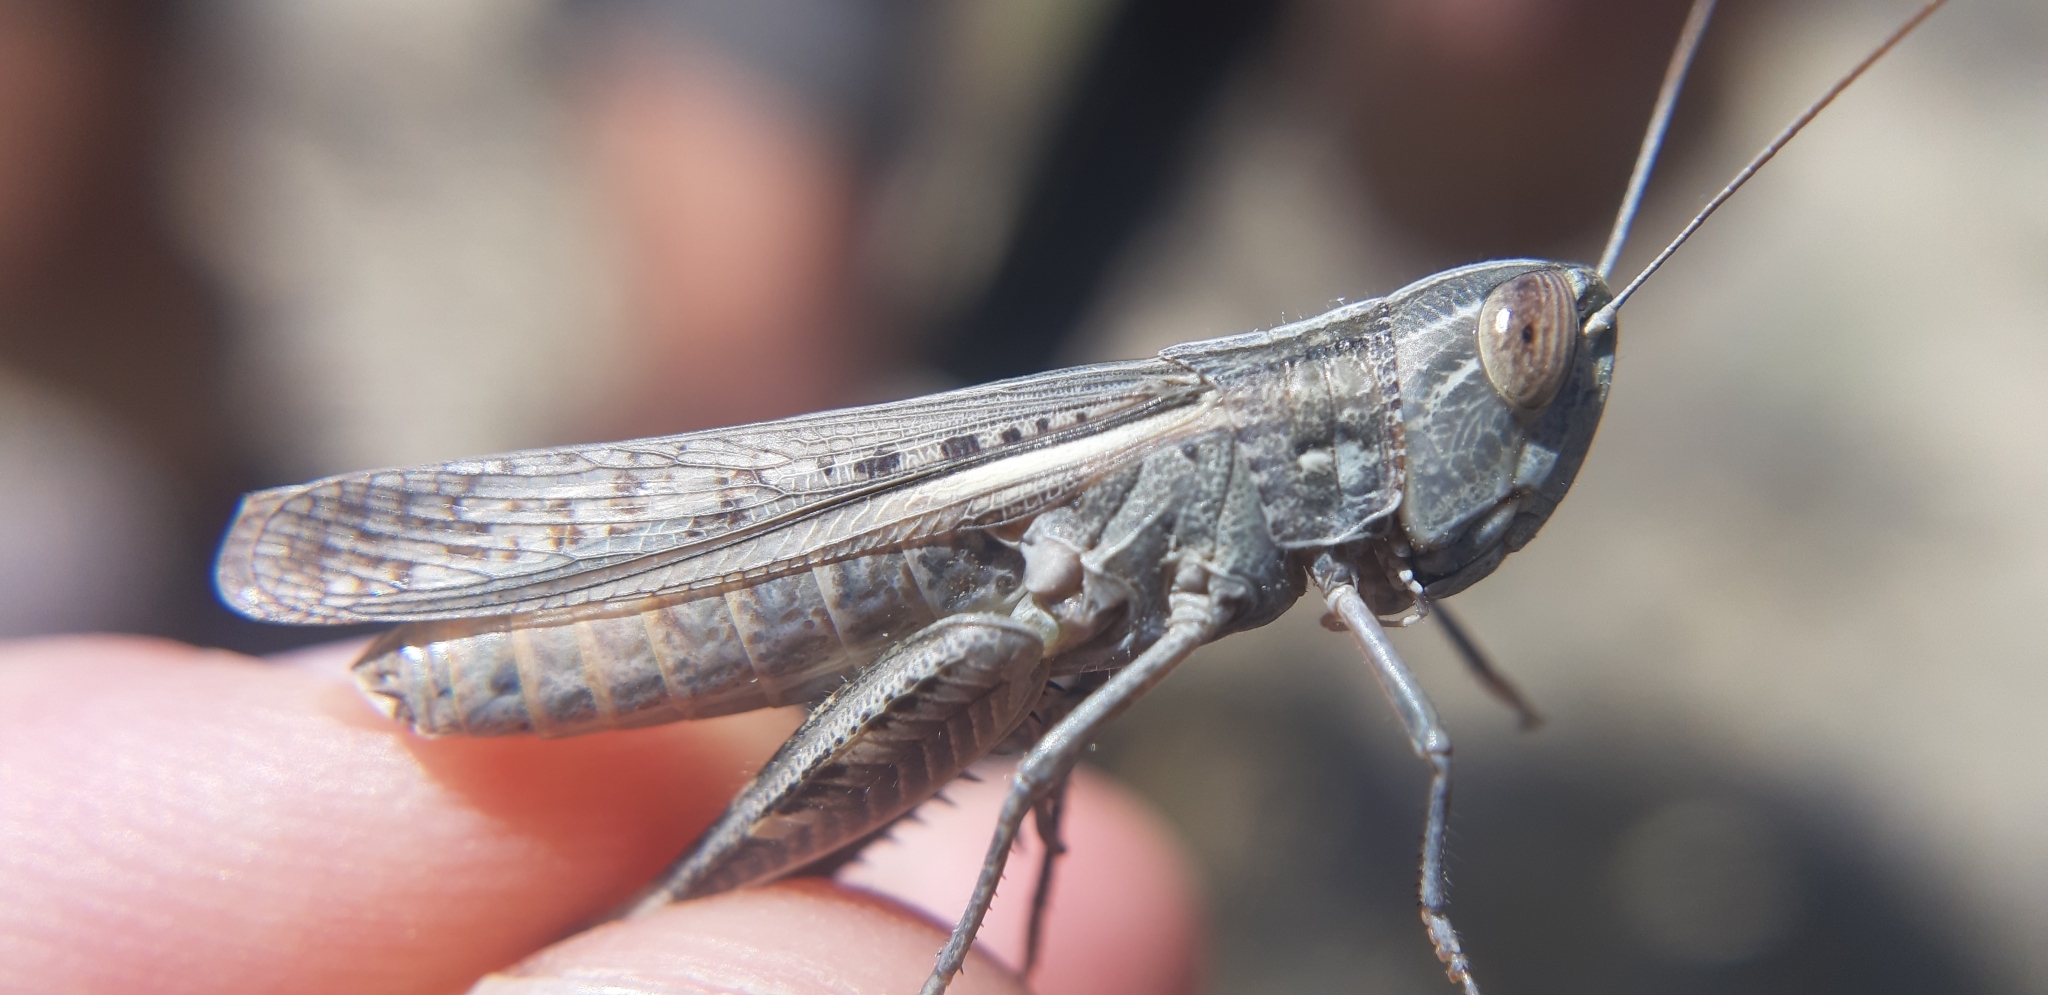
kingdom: Animalia
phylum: Arthropoda
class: Insecta
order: Orthoptera
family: Acrididae
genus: Ramburiella
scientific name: Ramburiella hispanica
